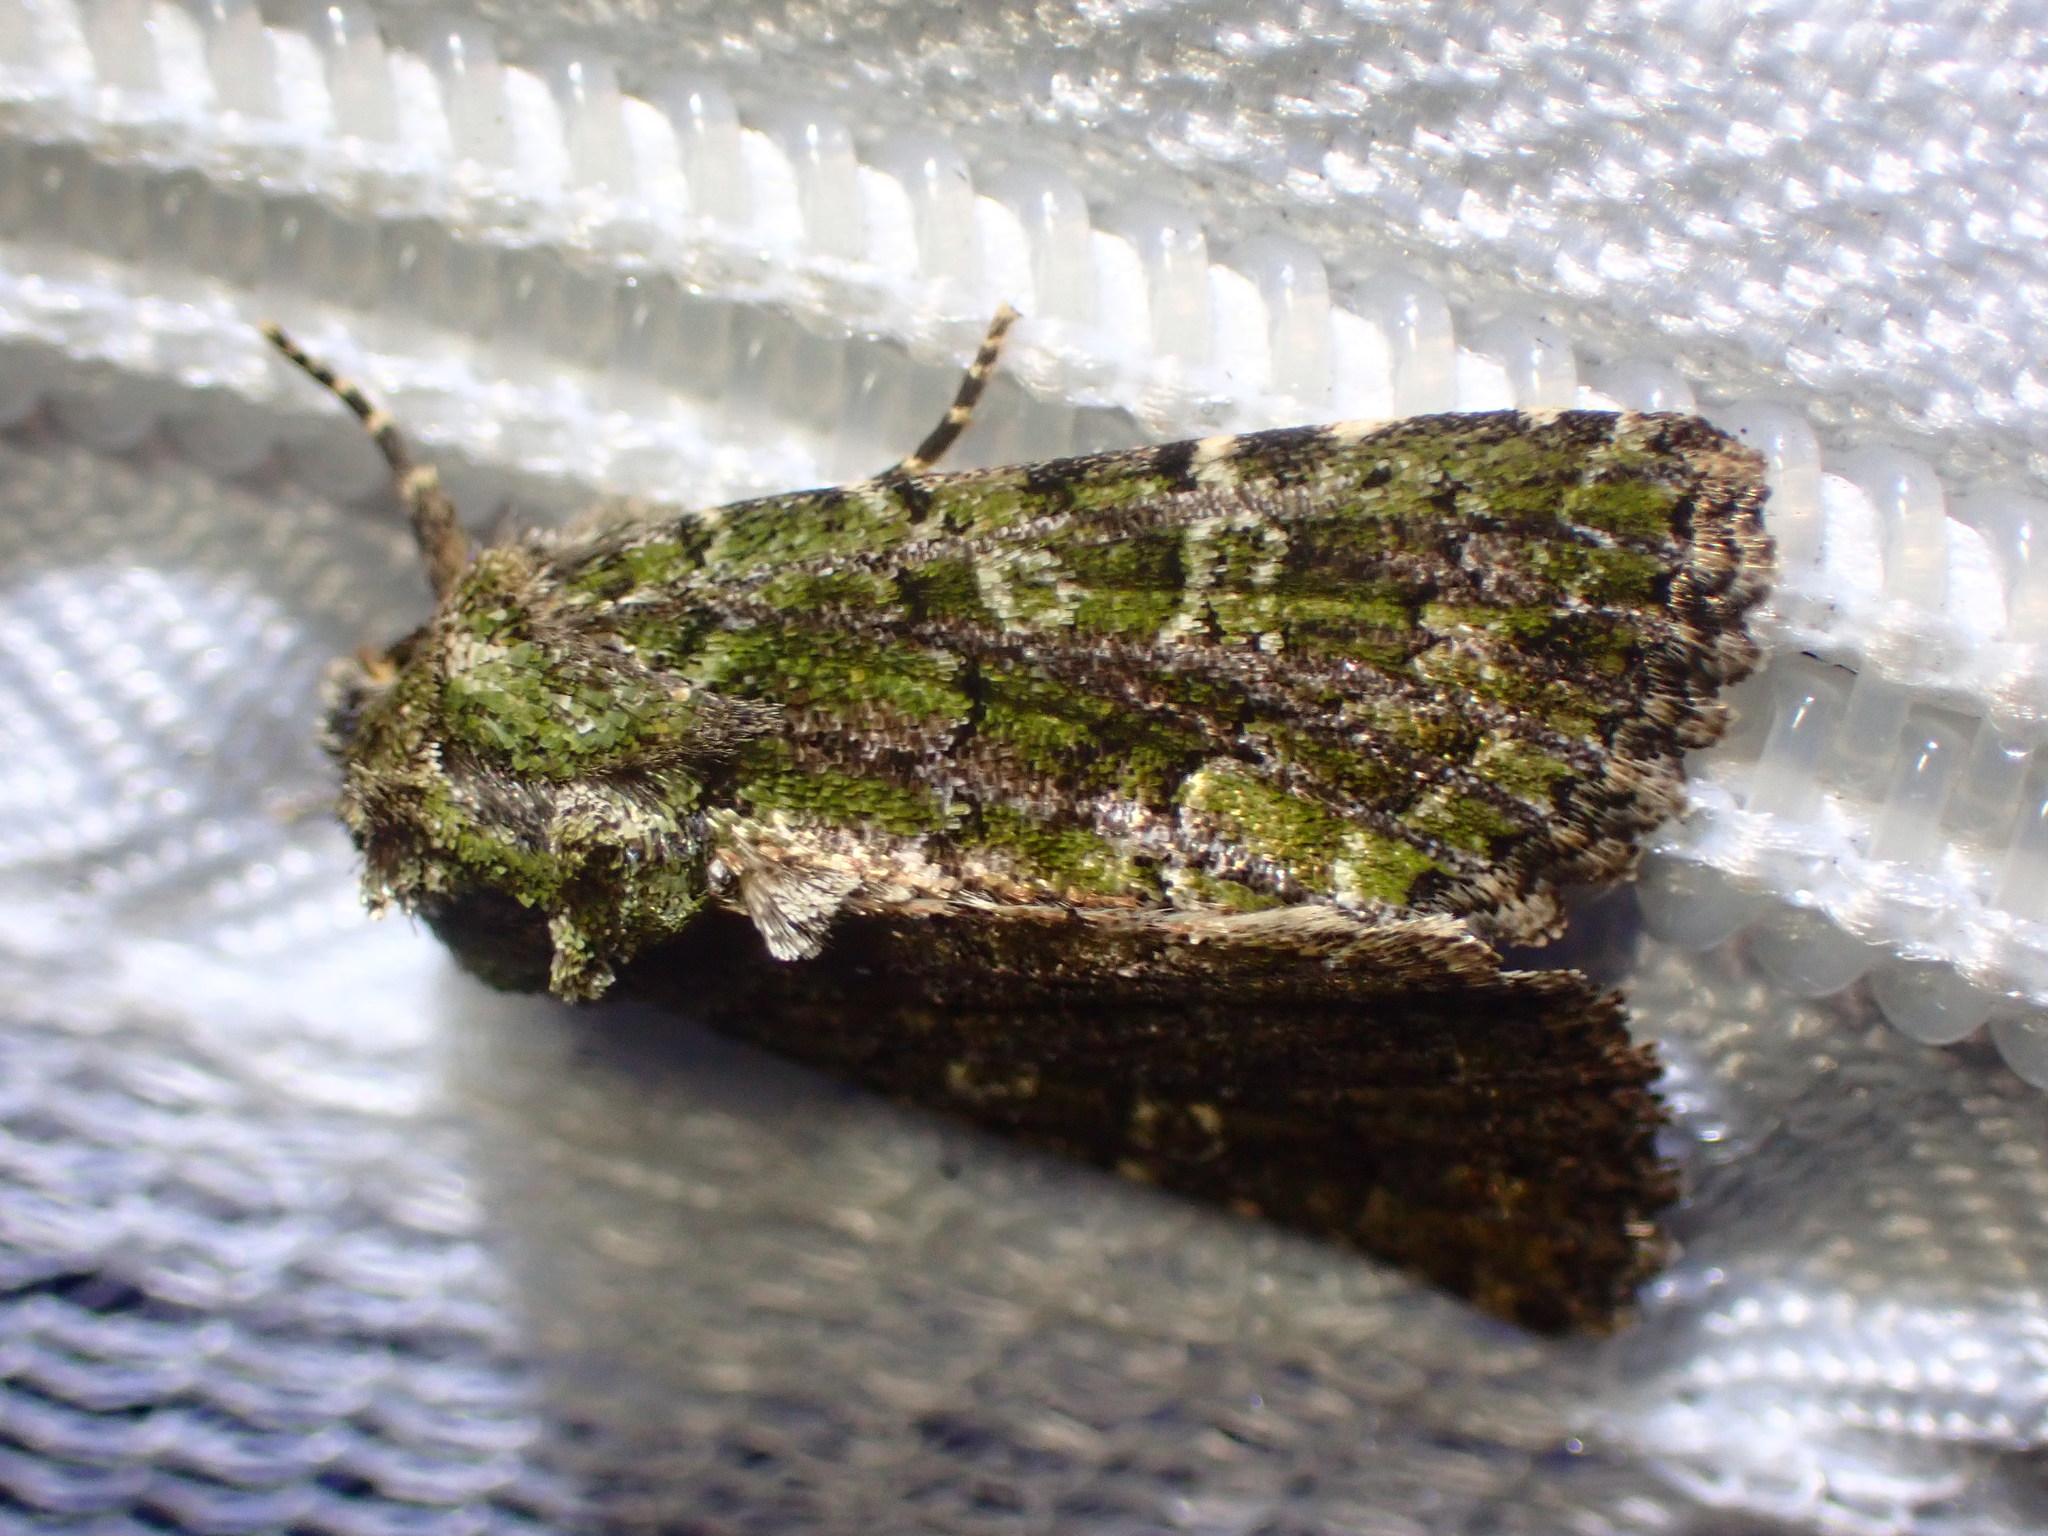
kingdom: Animalia
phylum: Arthropoda
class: Insecta
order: Lepidoptera
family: Noctuidae
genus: Aseptis
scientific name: Aseptis marina
